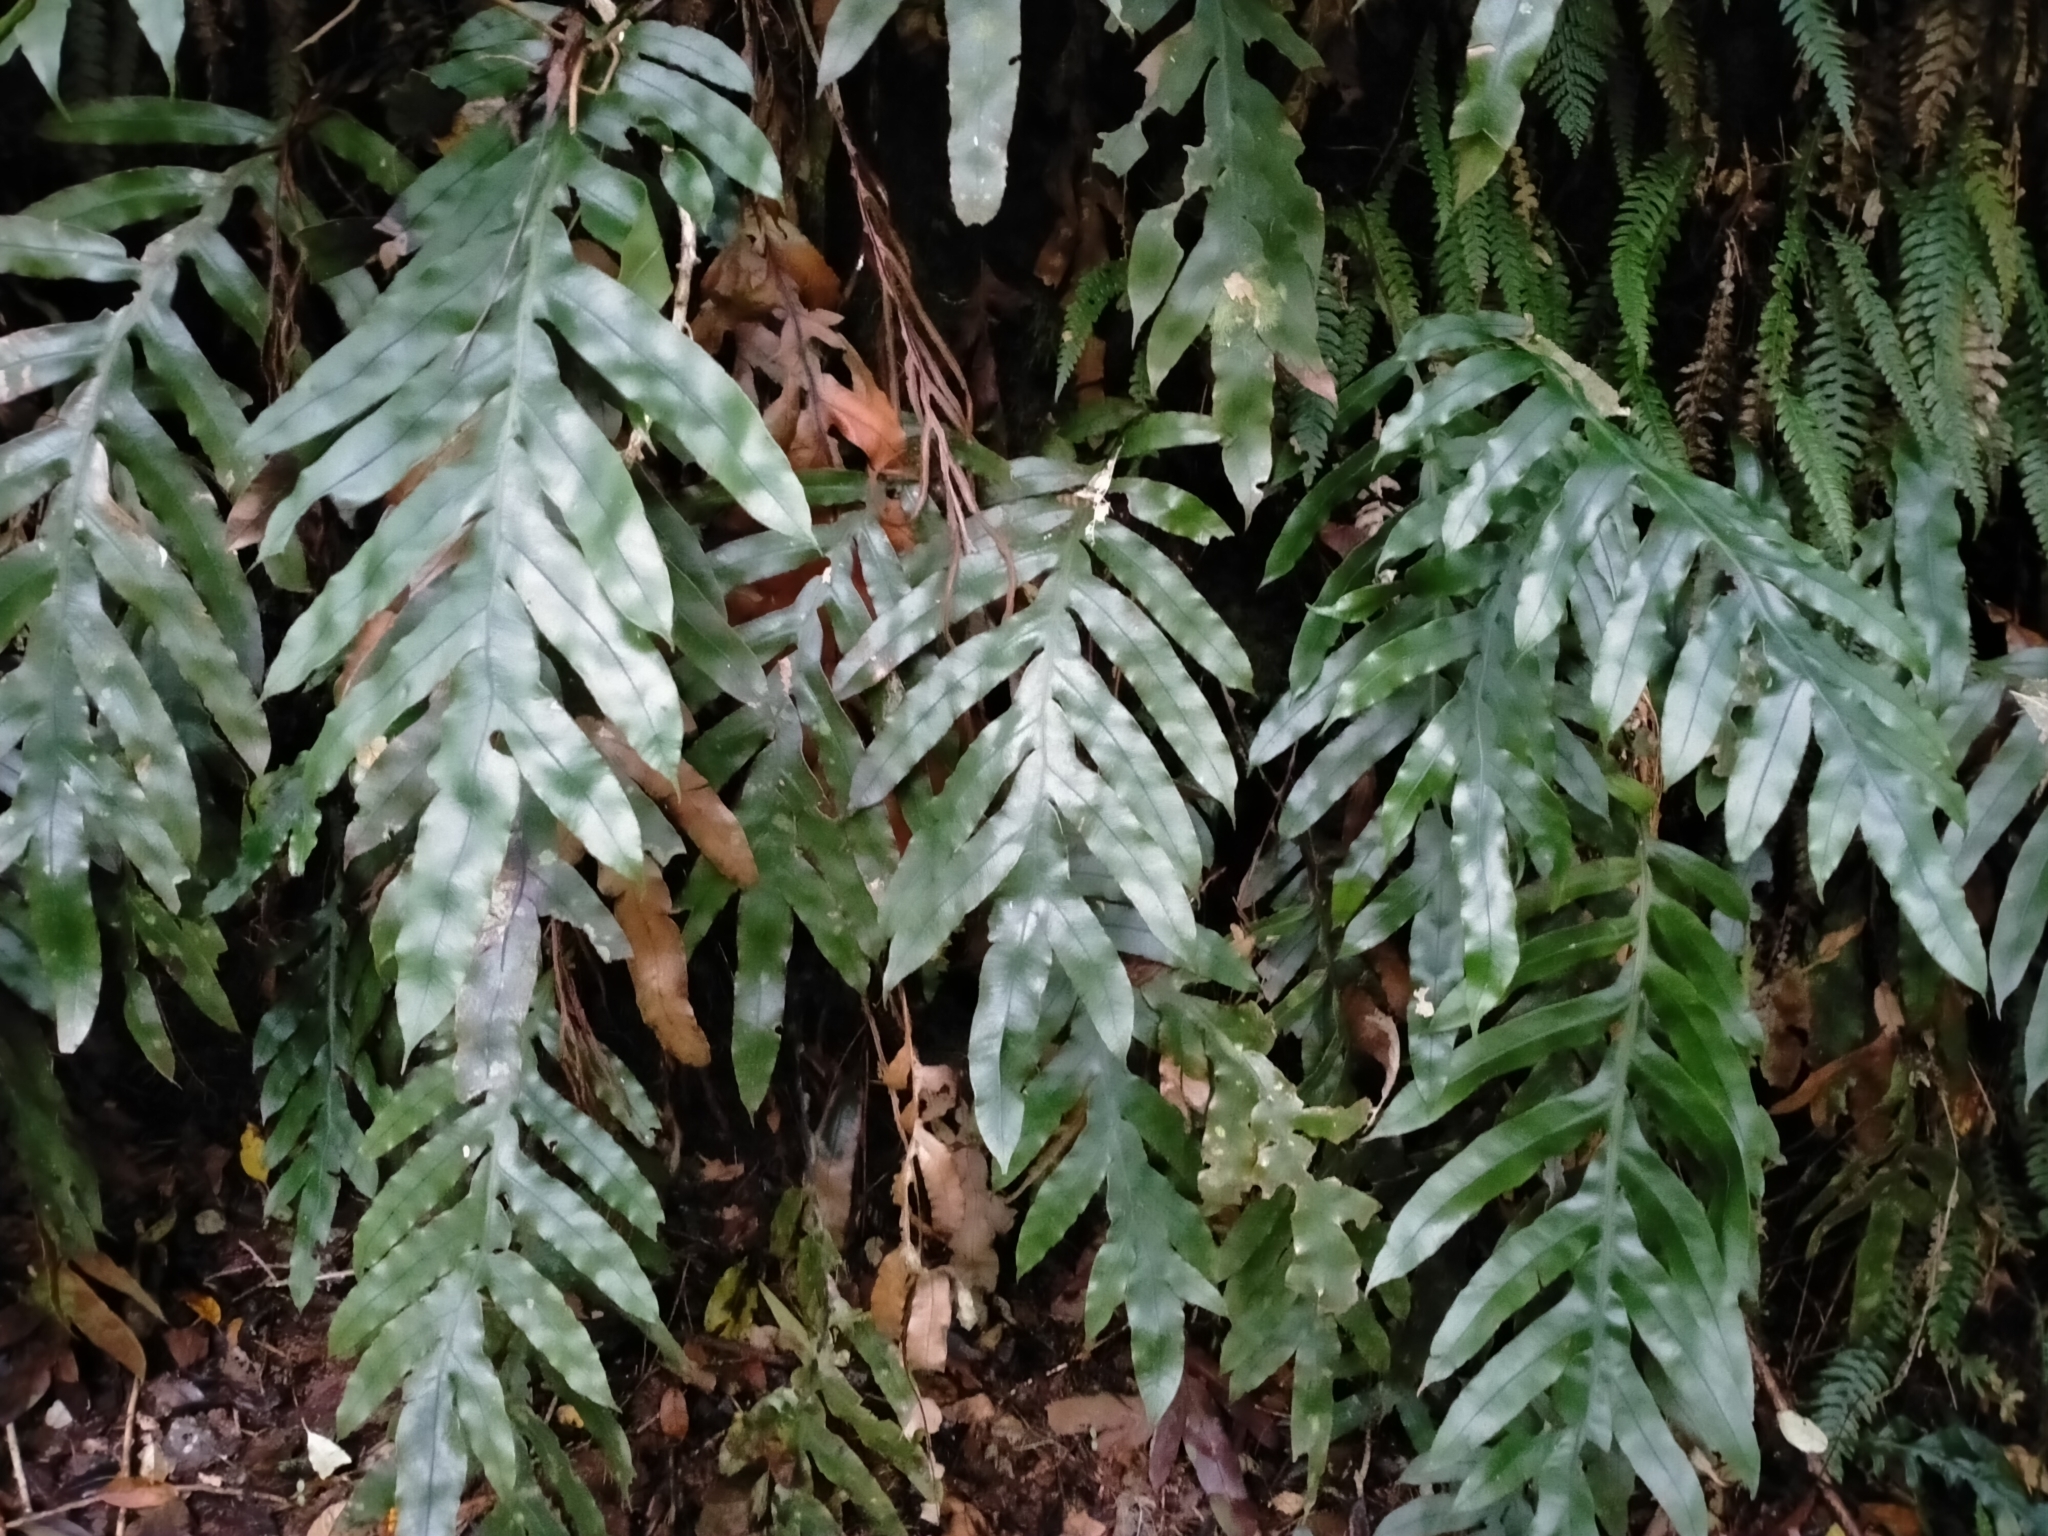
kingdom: Plantae
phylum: Tracheophyta
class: Polypodiopsida
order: Polypodiales
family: Blechnaceae
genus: Austroblechnum
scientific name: Austroblechnum colensoi
